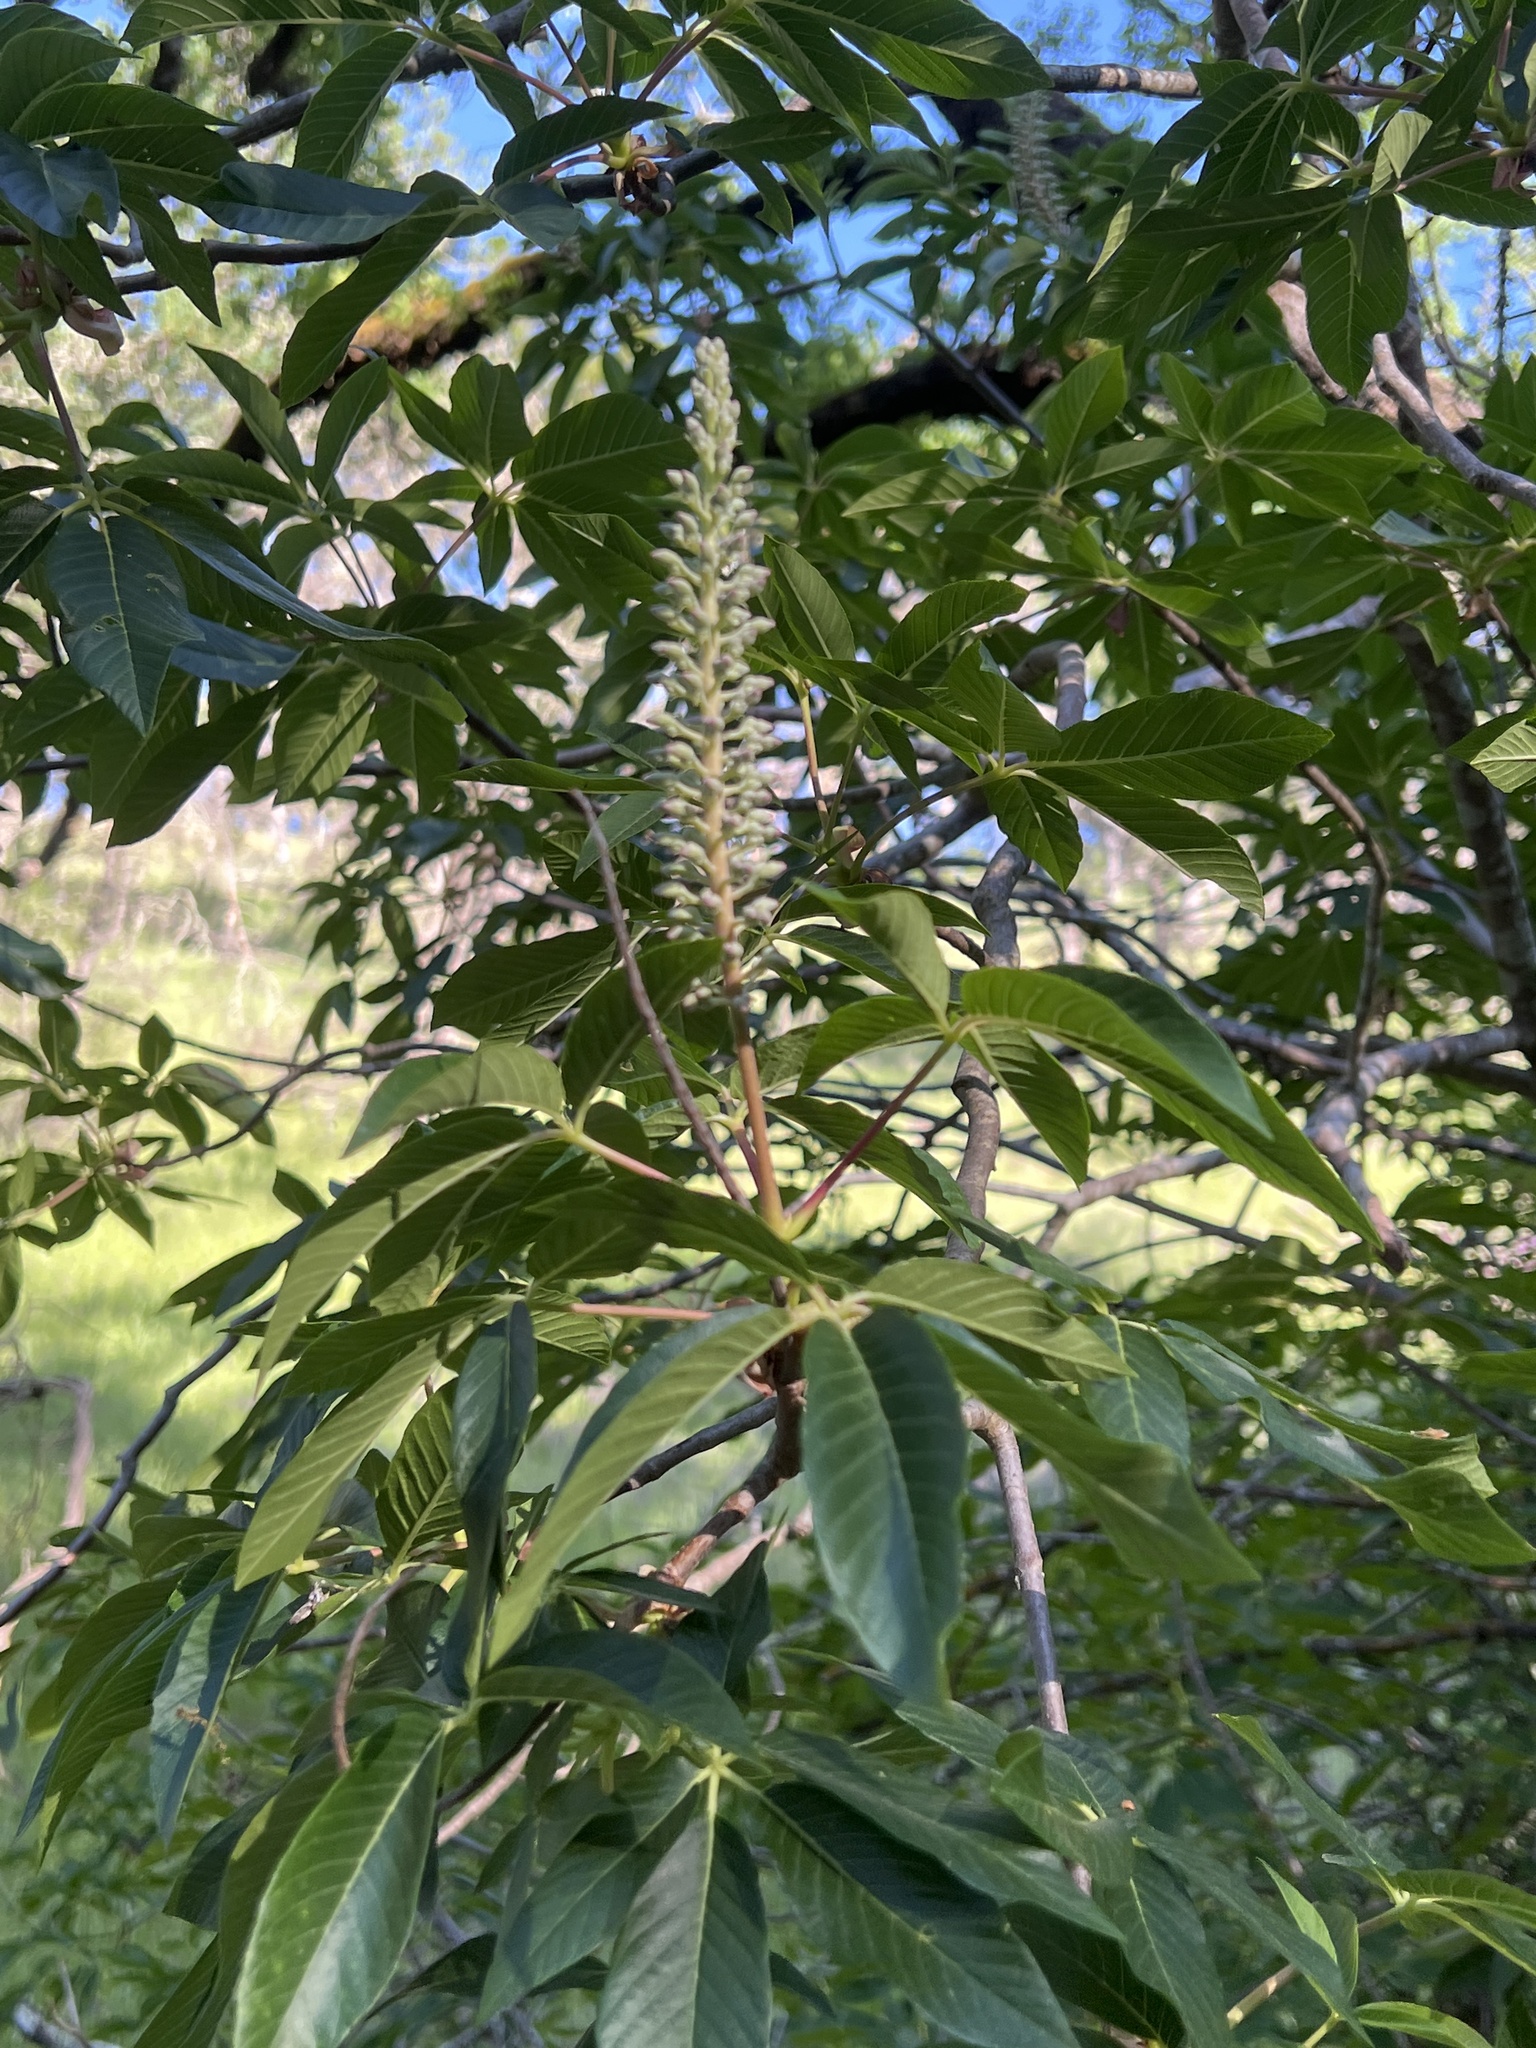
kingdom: Plantae
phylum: Tracheophyta
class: Magnoliopsida
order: Sapindales
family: Sapindaceae
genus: Aesculus
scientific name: Aesculus californica
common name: California buckeye
